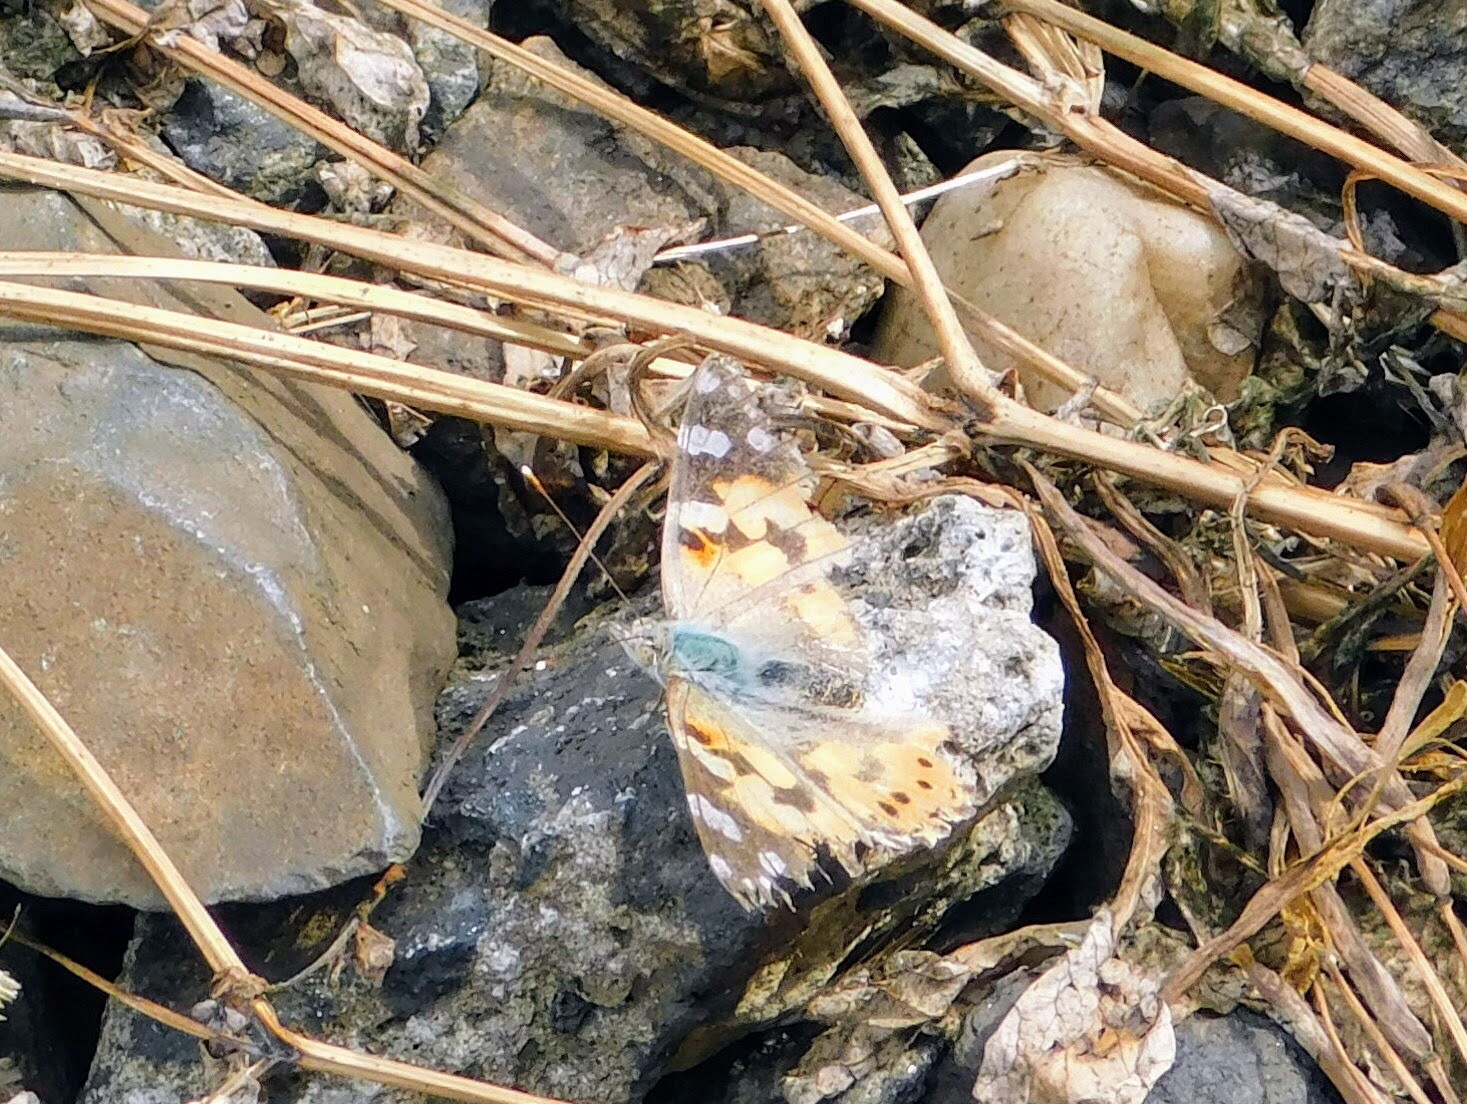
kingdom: Animalia
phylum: Arthropoda
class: Insecta
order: Lepidoptera
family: Nymphalidae
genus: Vanessa
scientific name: Vanessa cardui
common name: Painted lady
